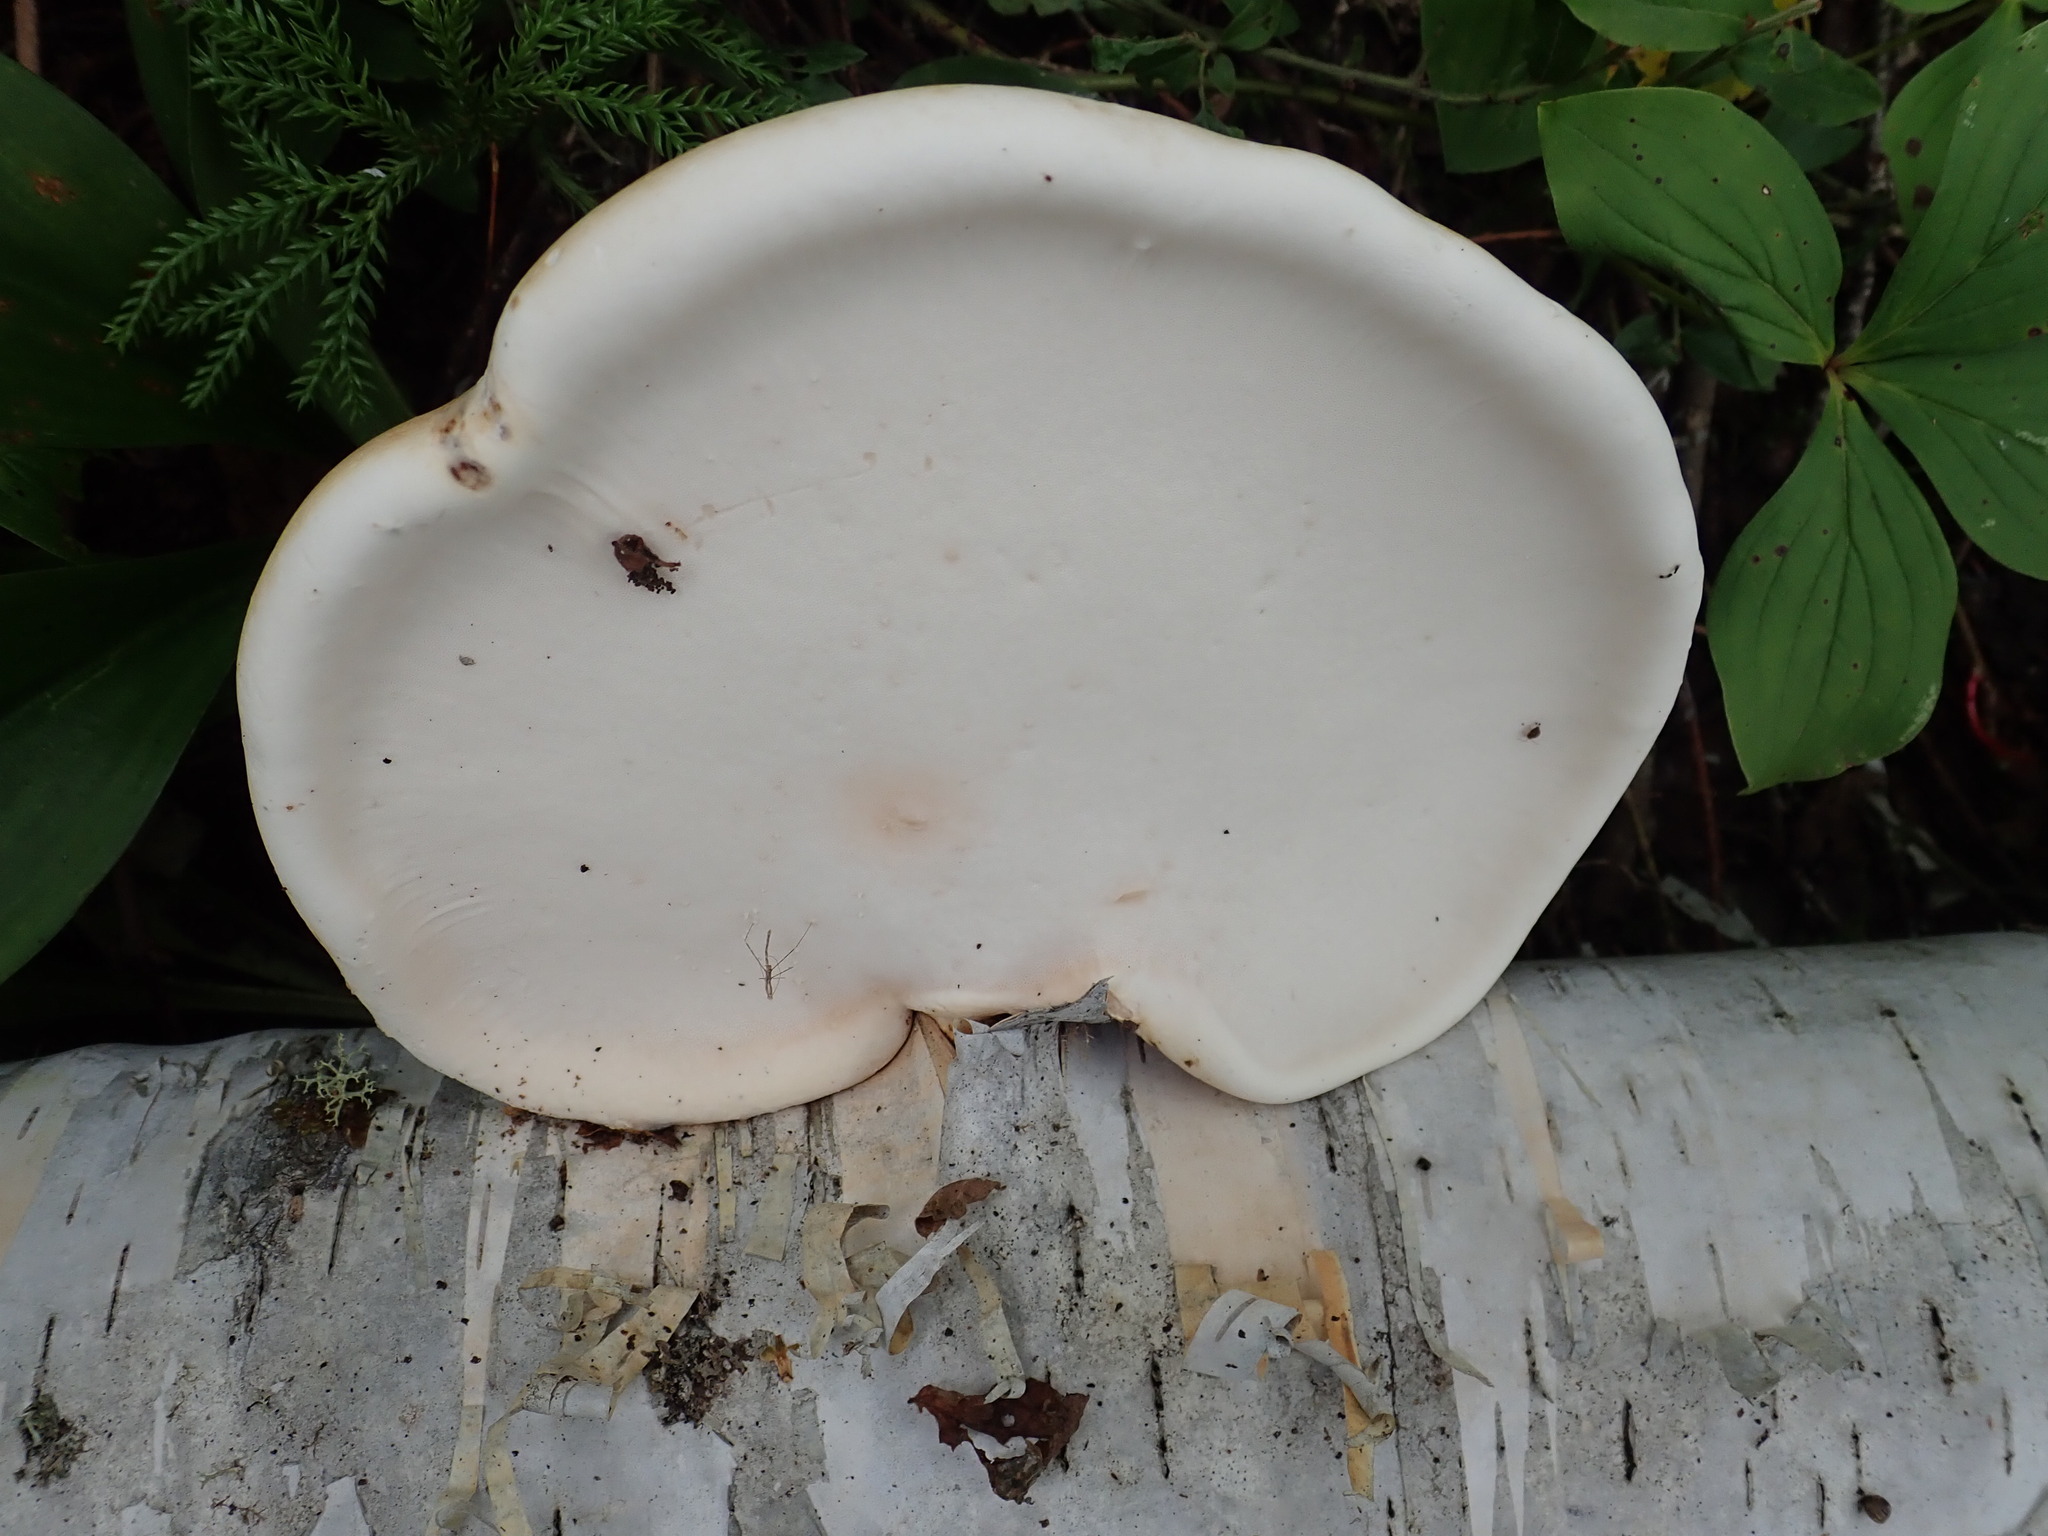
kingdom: Fungi
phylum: Basidiomycota
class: Agaricomycetes
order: Polyporales
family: Fomitopsidaceae
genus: Fomitopsis
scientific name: Fomitopsis betulina
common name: Birch polypore
